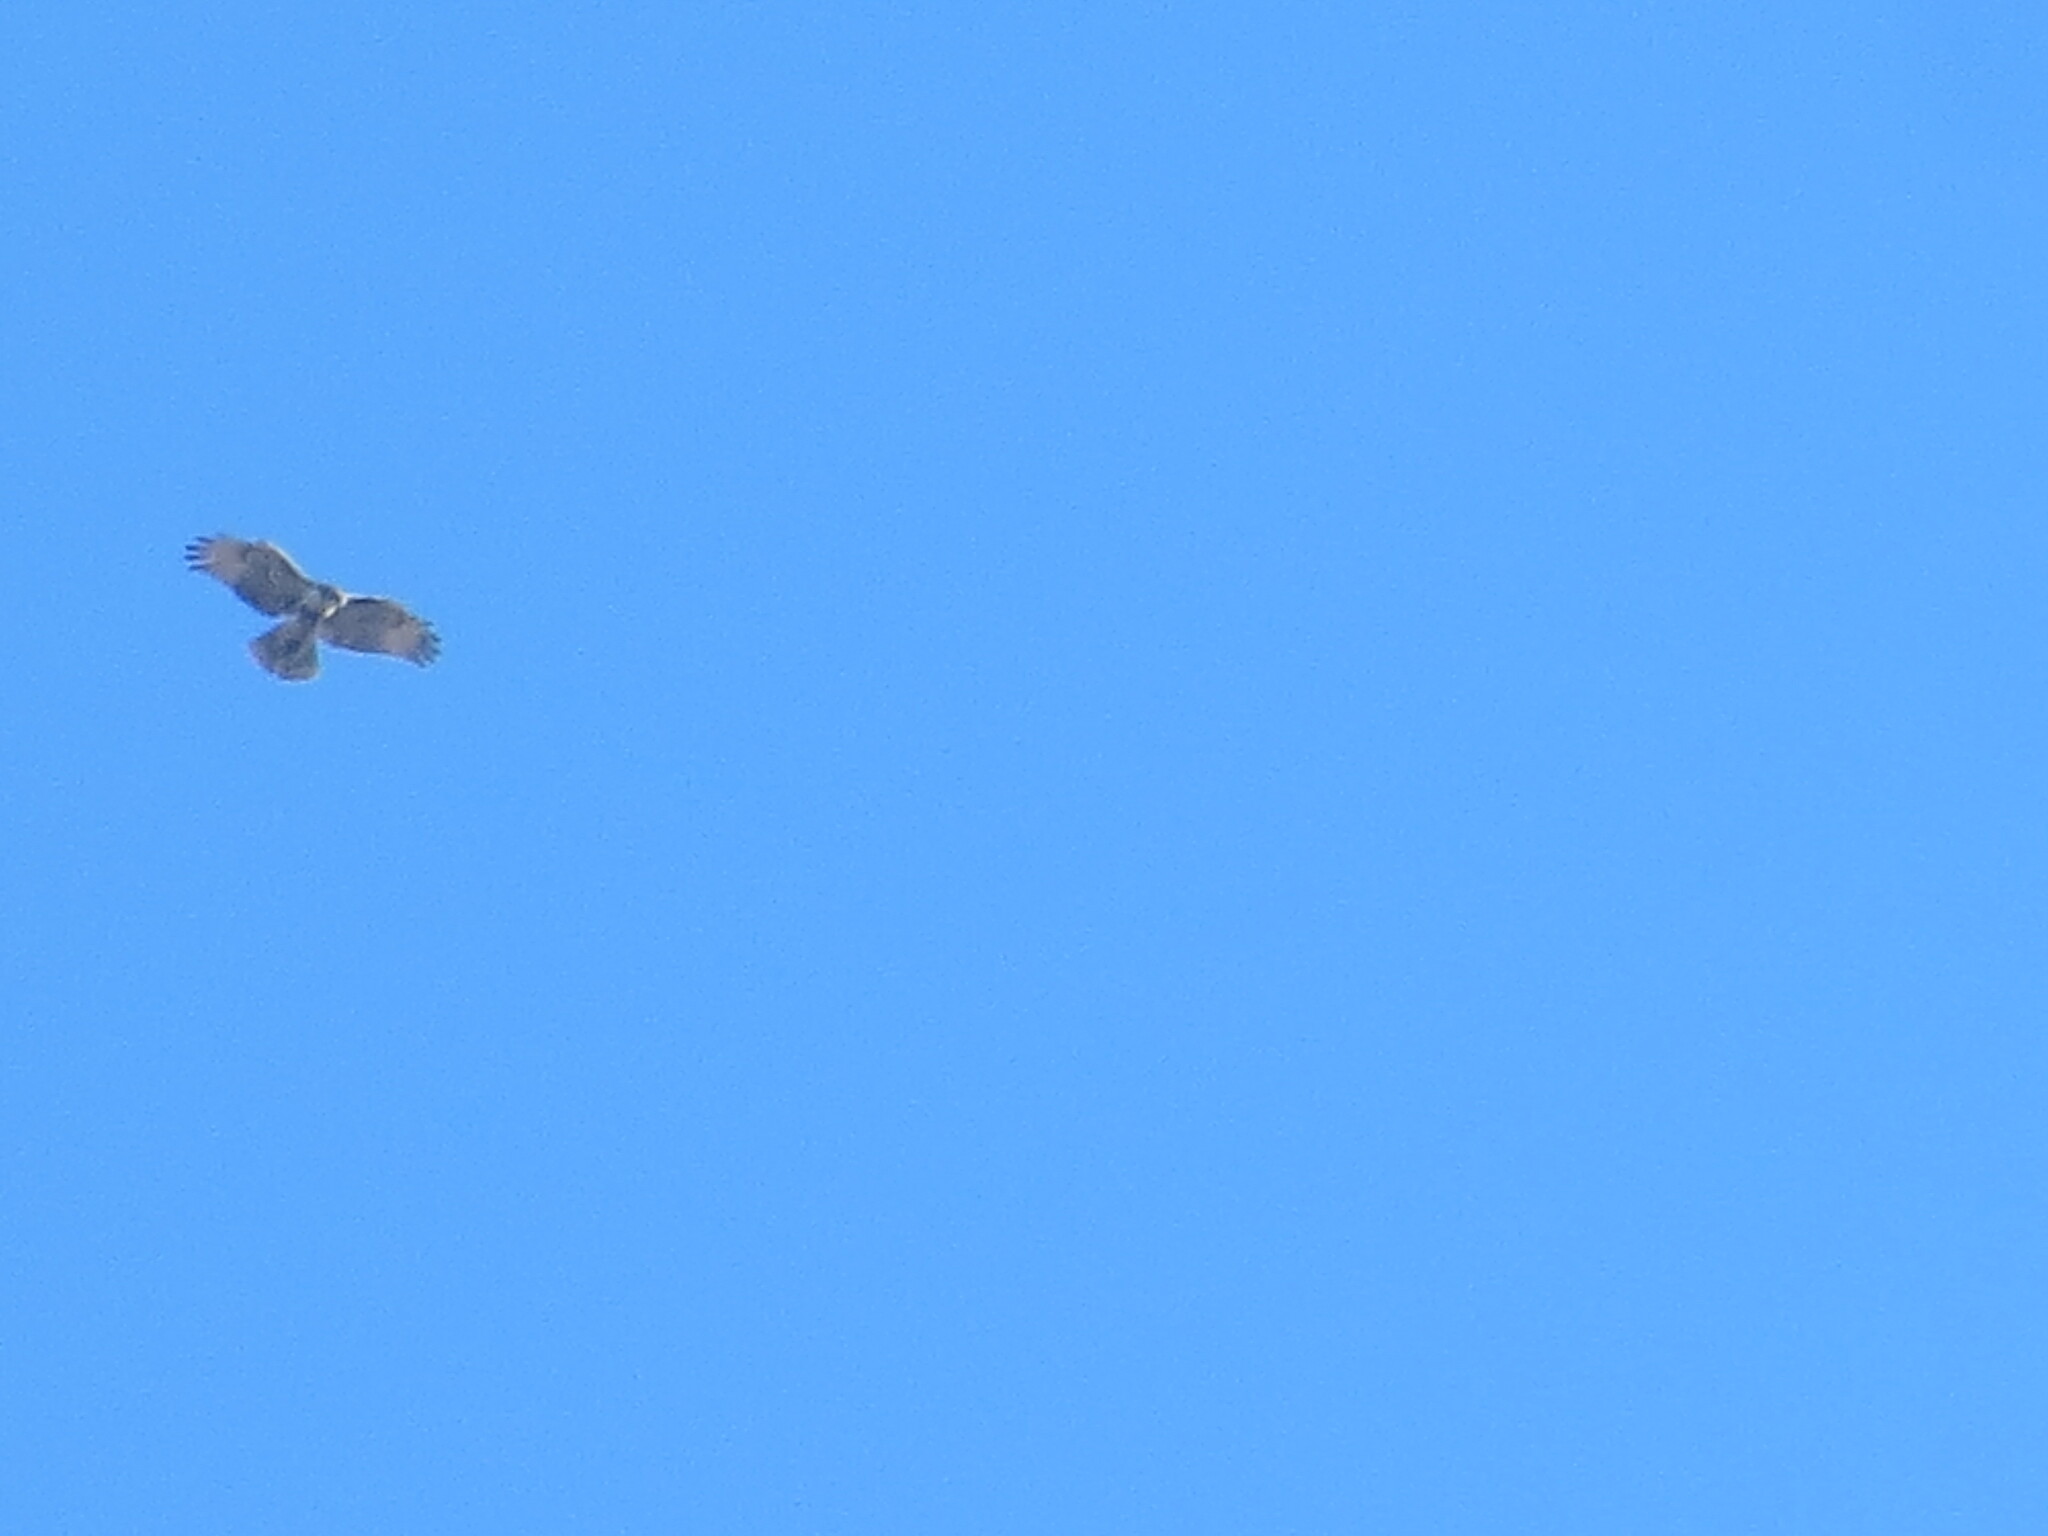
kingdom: Animalia
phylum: Chordata
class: Aves
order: Accipitriformes
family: Accipitridae
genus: Buteo
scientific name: Buteo jamaicensis
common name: Red-tailed hawk
